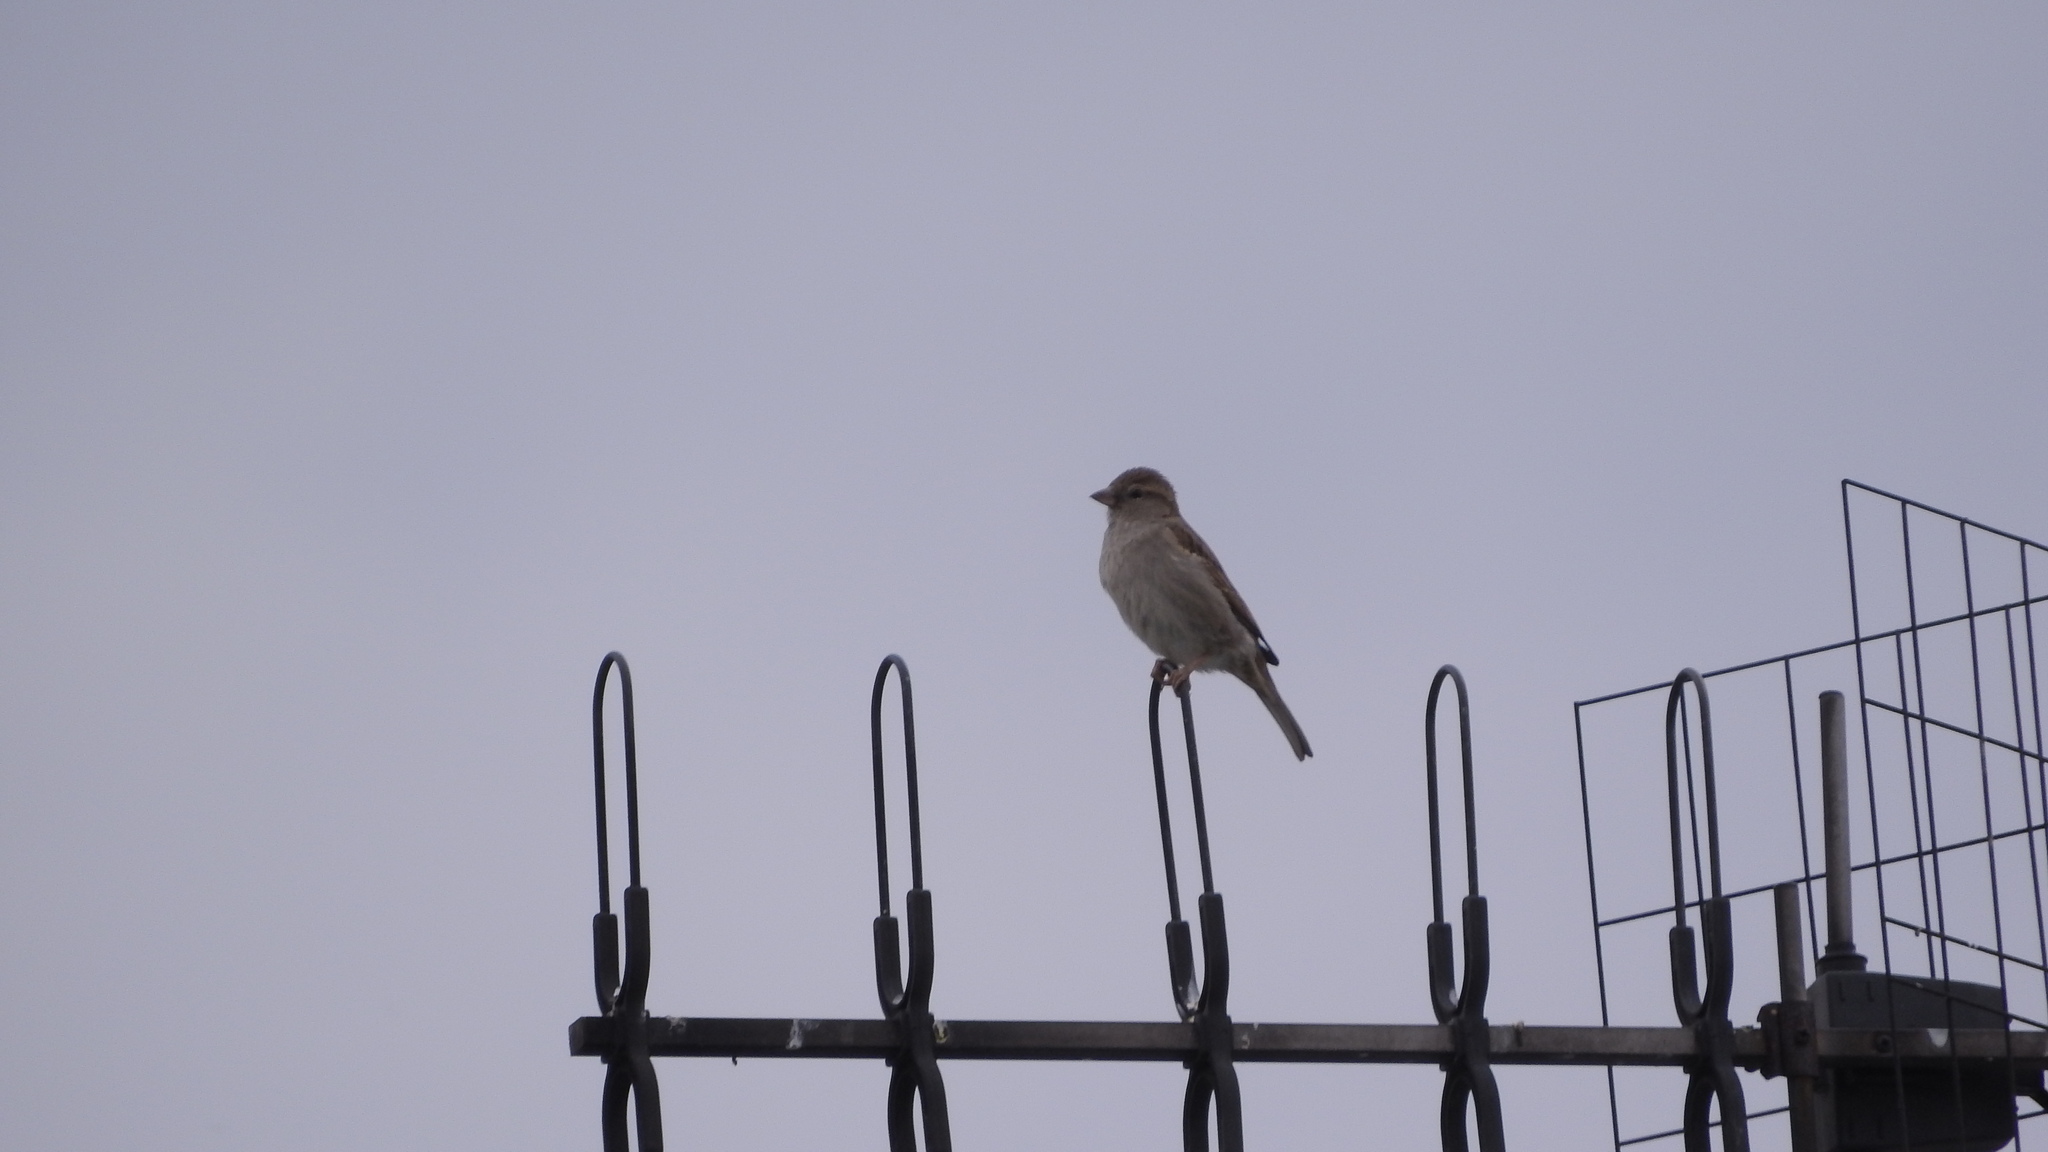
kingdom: Animalia
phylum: Chordata
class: Aves
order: Passeriformes
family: Passeridae
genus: Passer
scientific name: Passer domesticus
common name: House sparrow
